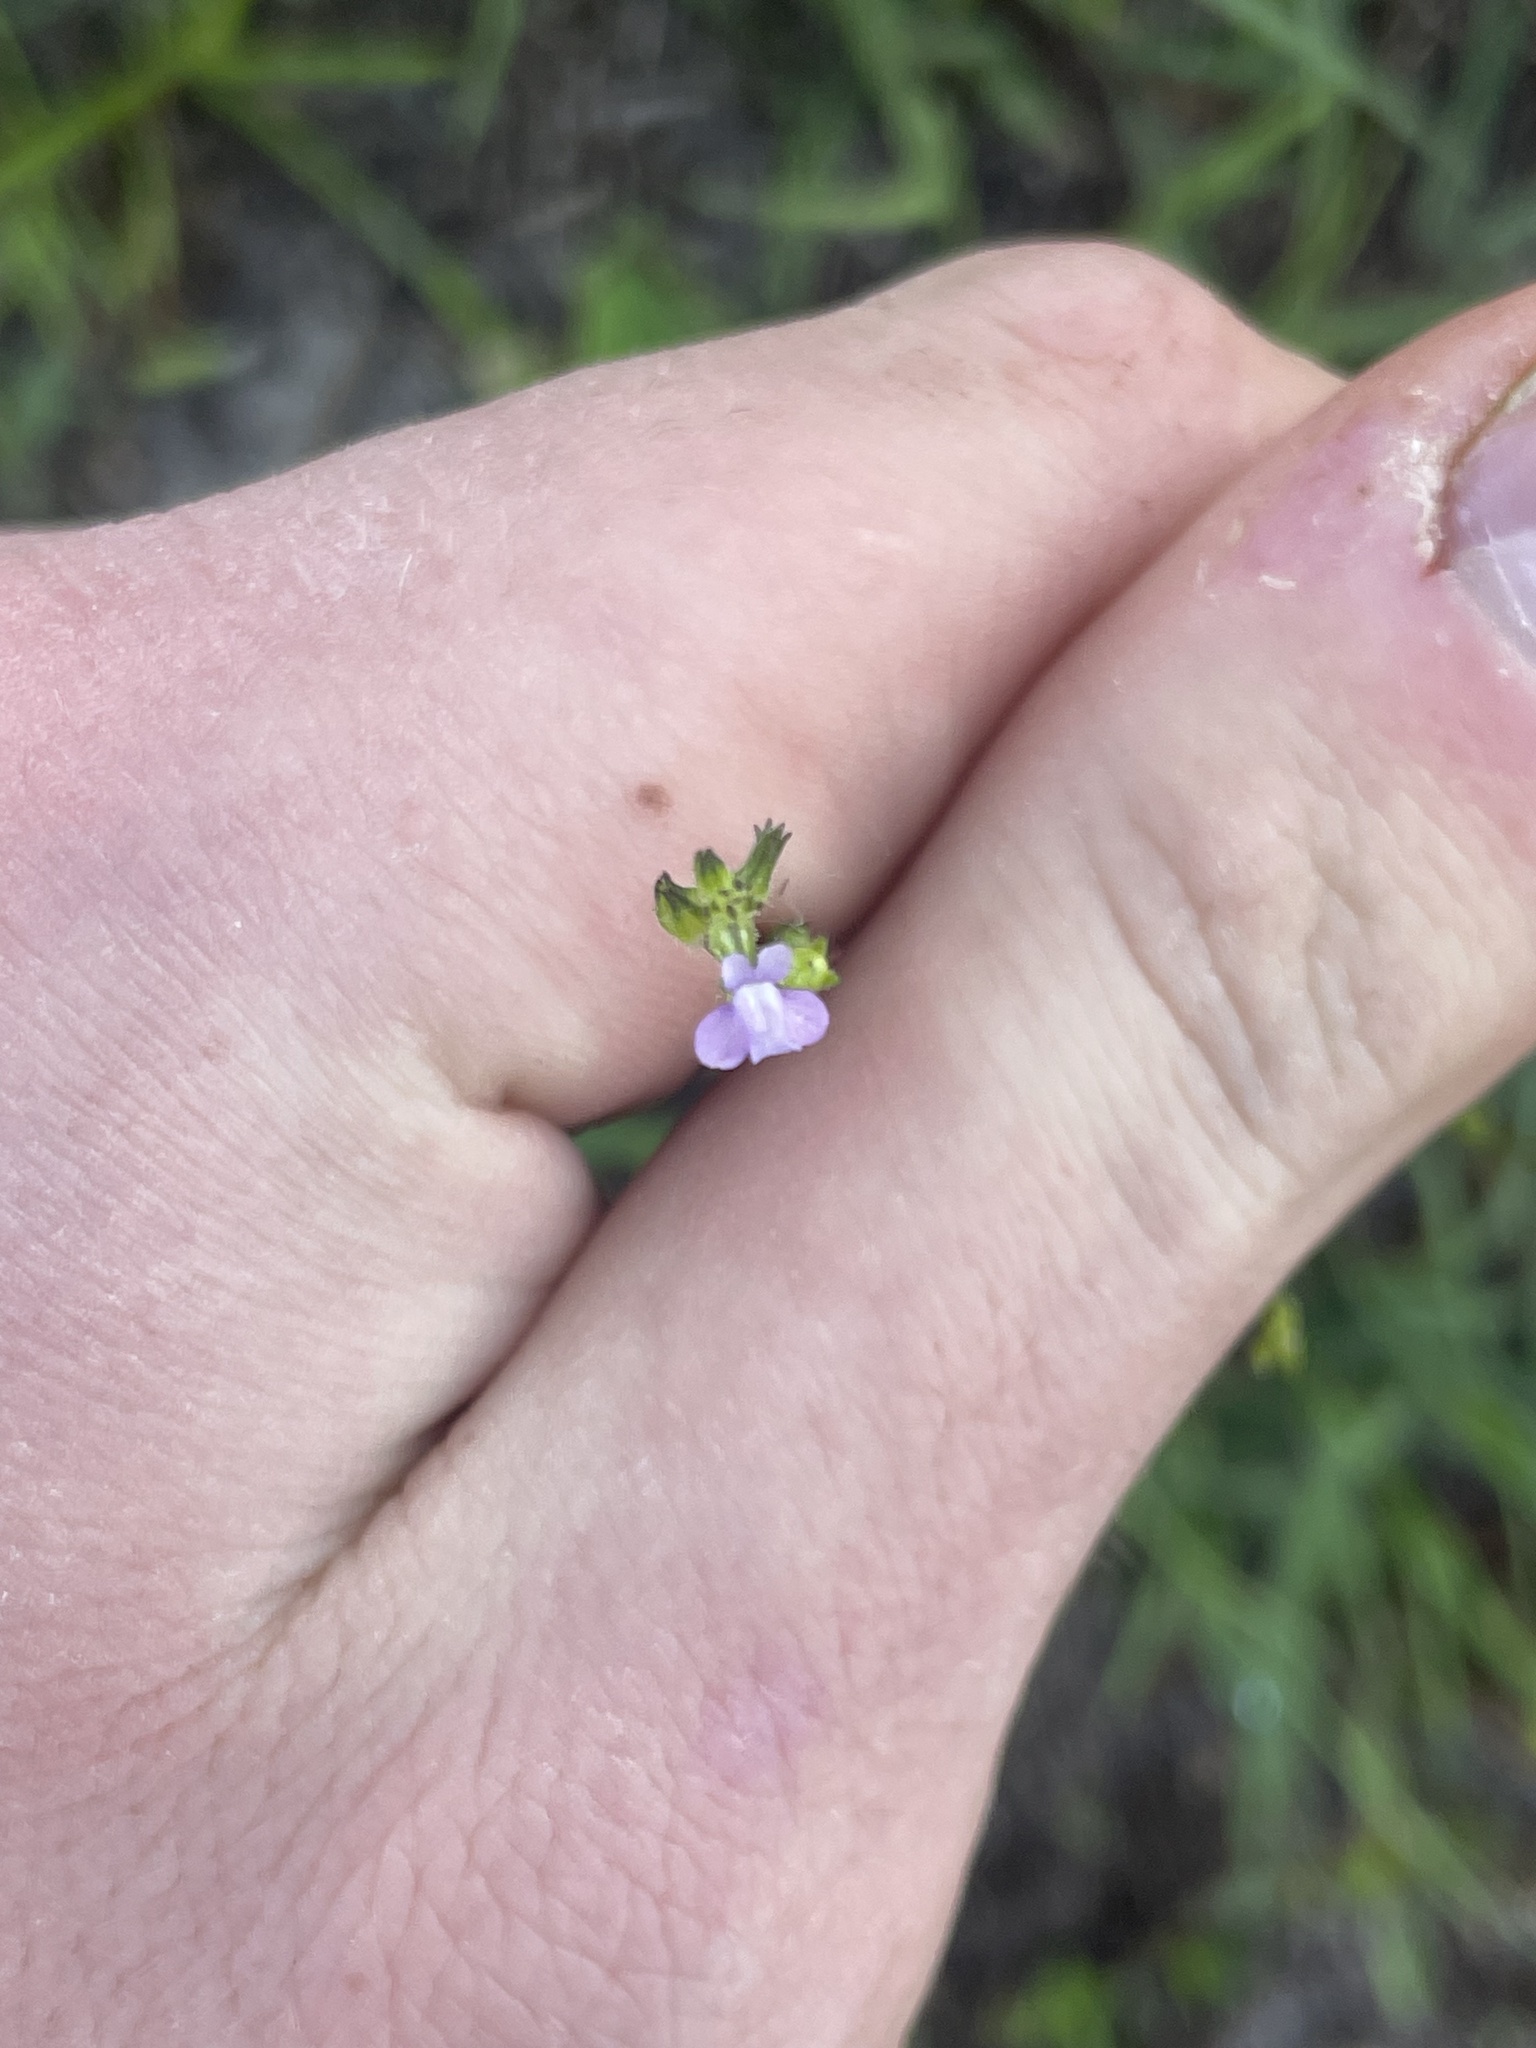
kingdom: Plantae
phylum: Tracheophyta
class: Magnoliopsida
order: Lamiales
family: Plantaginaceae
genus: Nuttallanthus
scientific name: Nuttallanthus canadensis
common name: Blue toadflax
